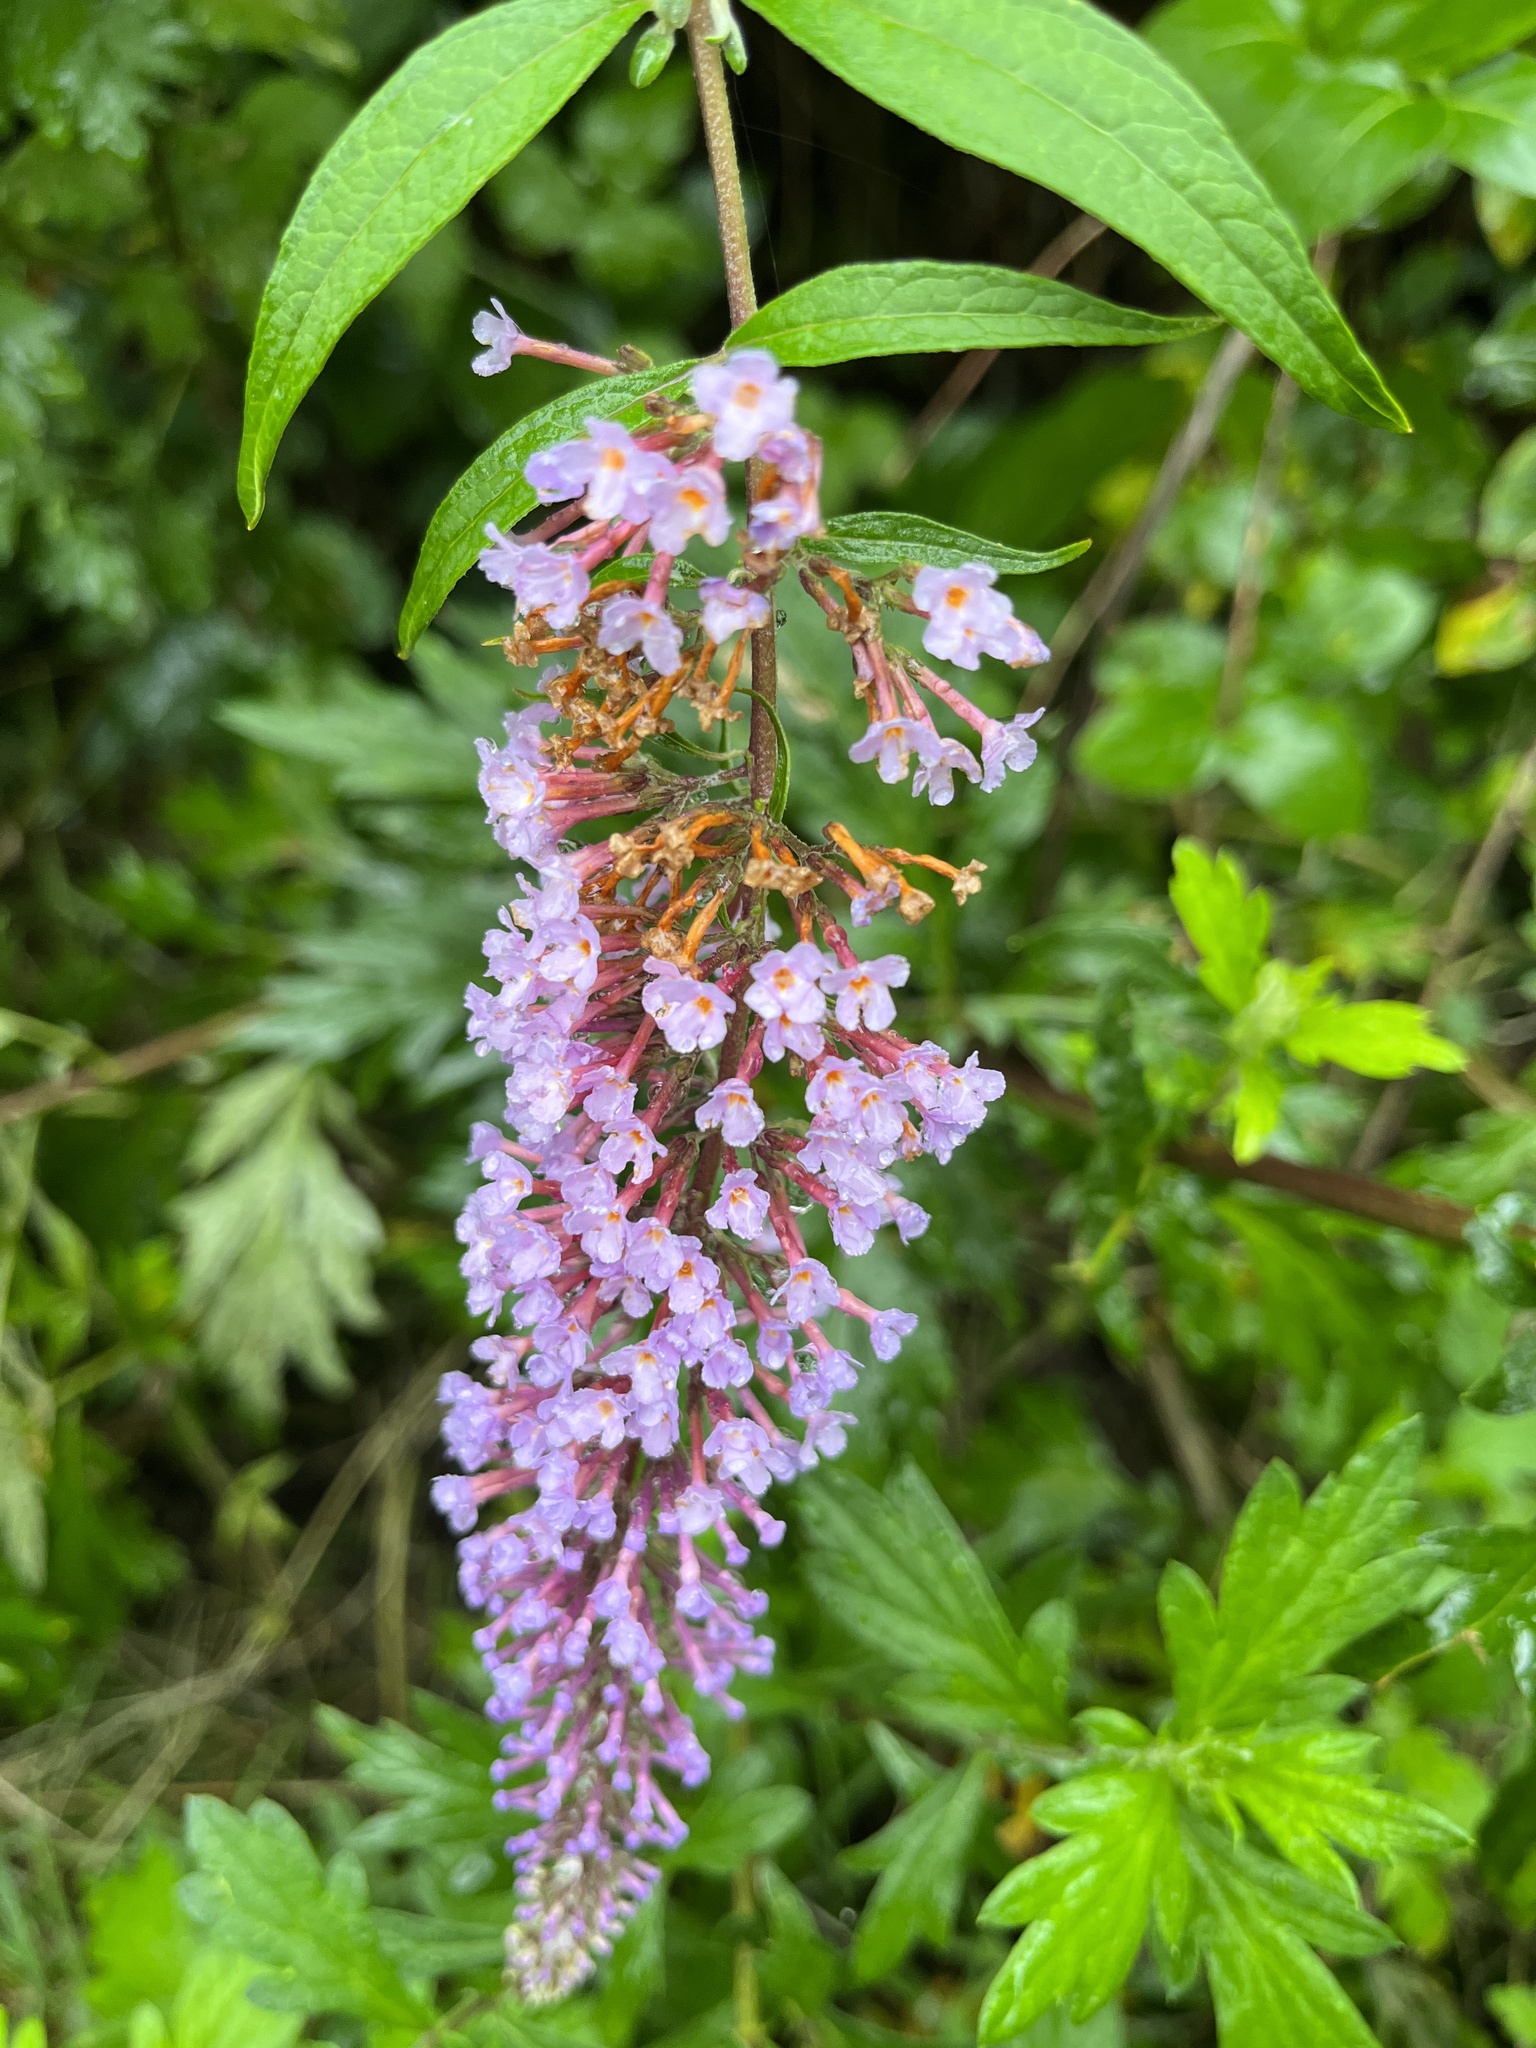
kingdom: Plantae
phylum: Tracheophyta
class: Magnoliopsida
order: Lamiales
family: Scrophulariaceae
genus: Buddleja
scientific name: Buddleja davidii
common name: Butterfly-bush
